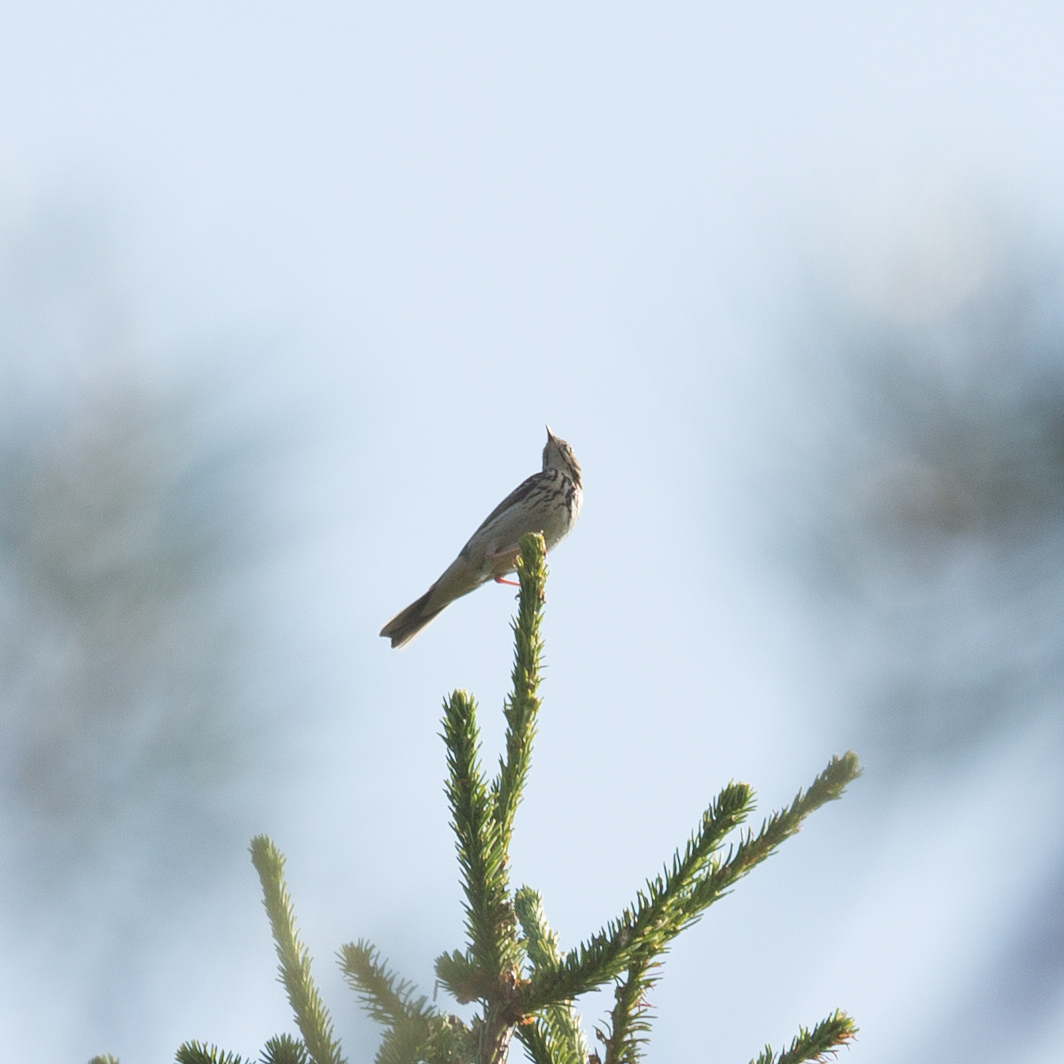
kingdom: Animalia
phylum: Chordata
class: Aves
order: Passeriformes
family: Motacillidae
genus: Anthus
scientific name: Anthus trivialis
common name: Tree pipit
